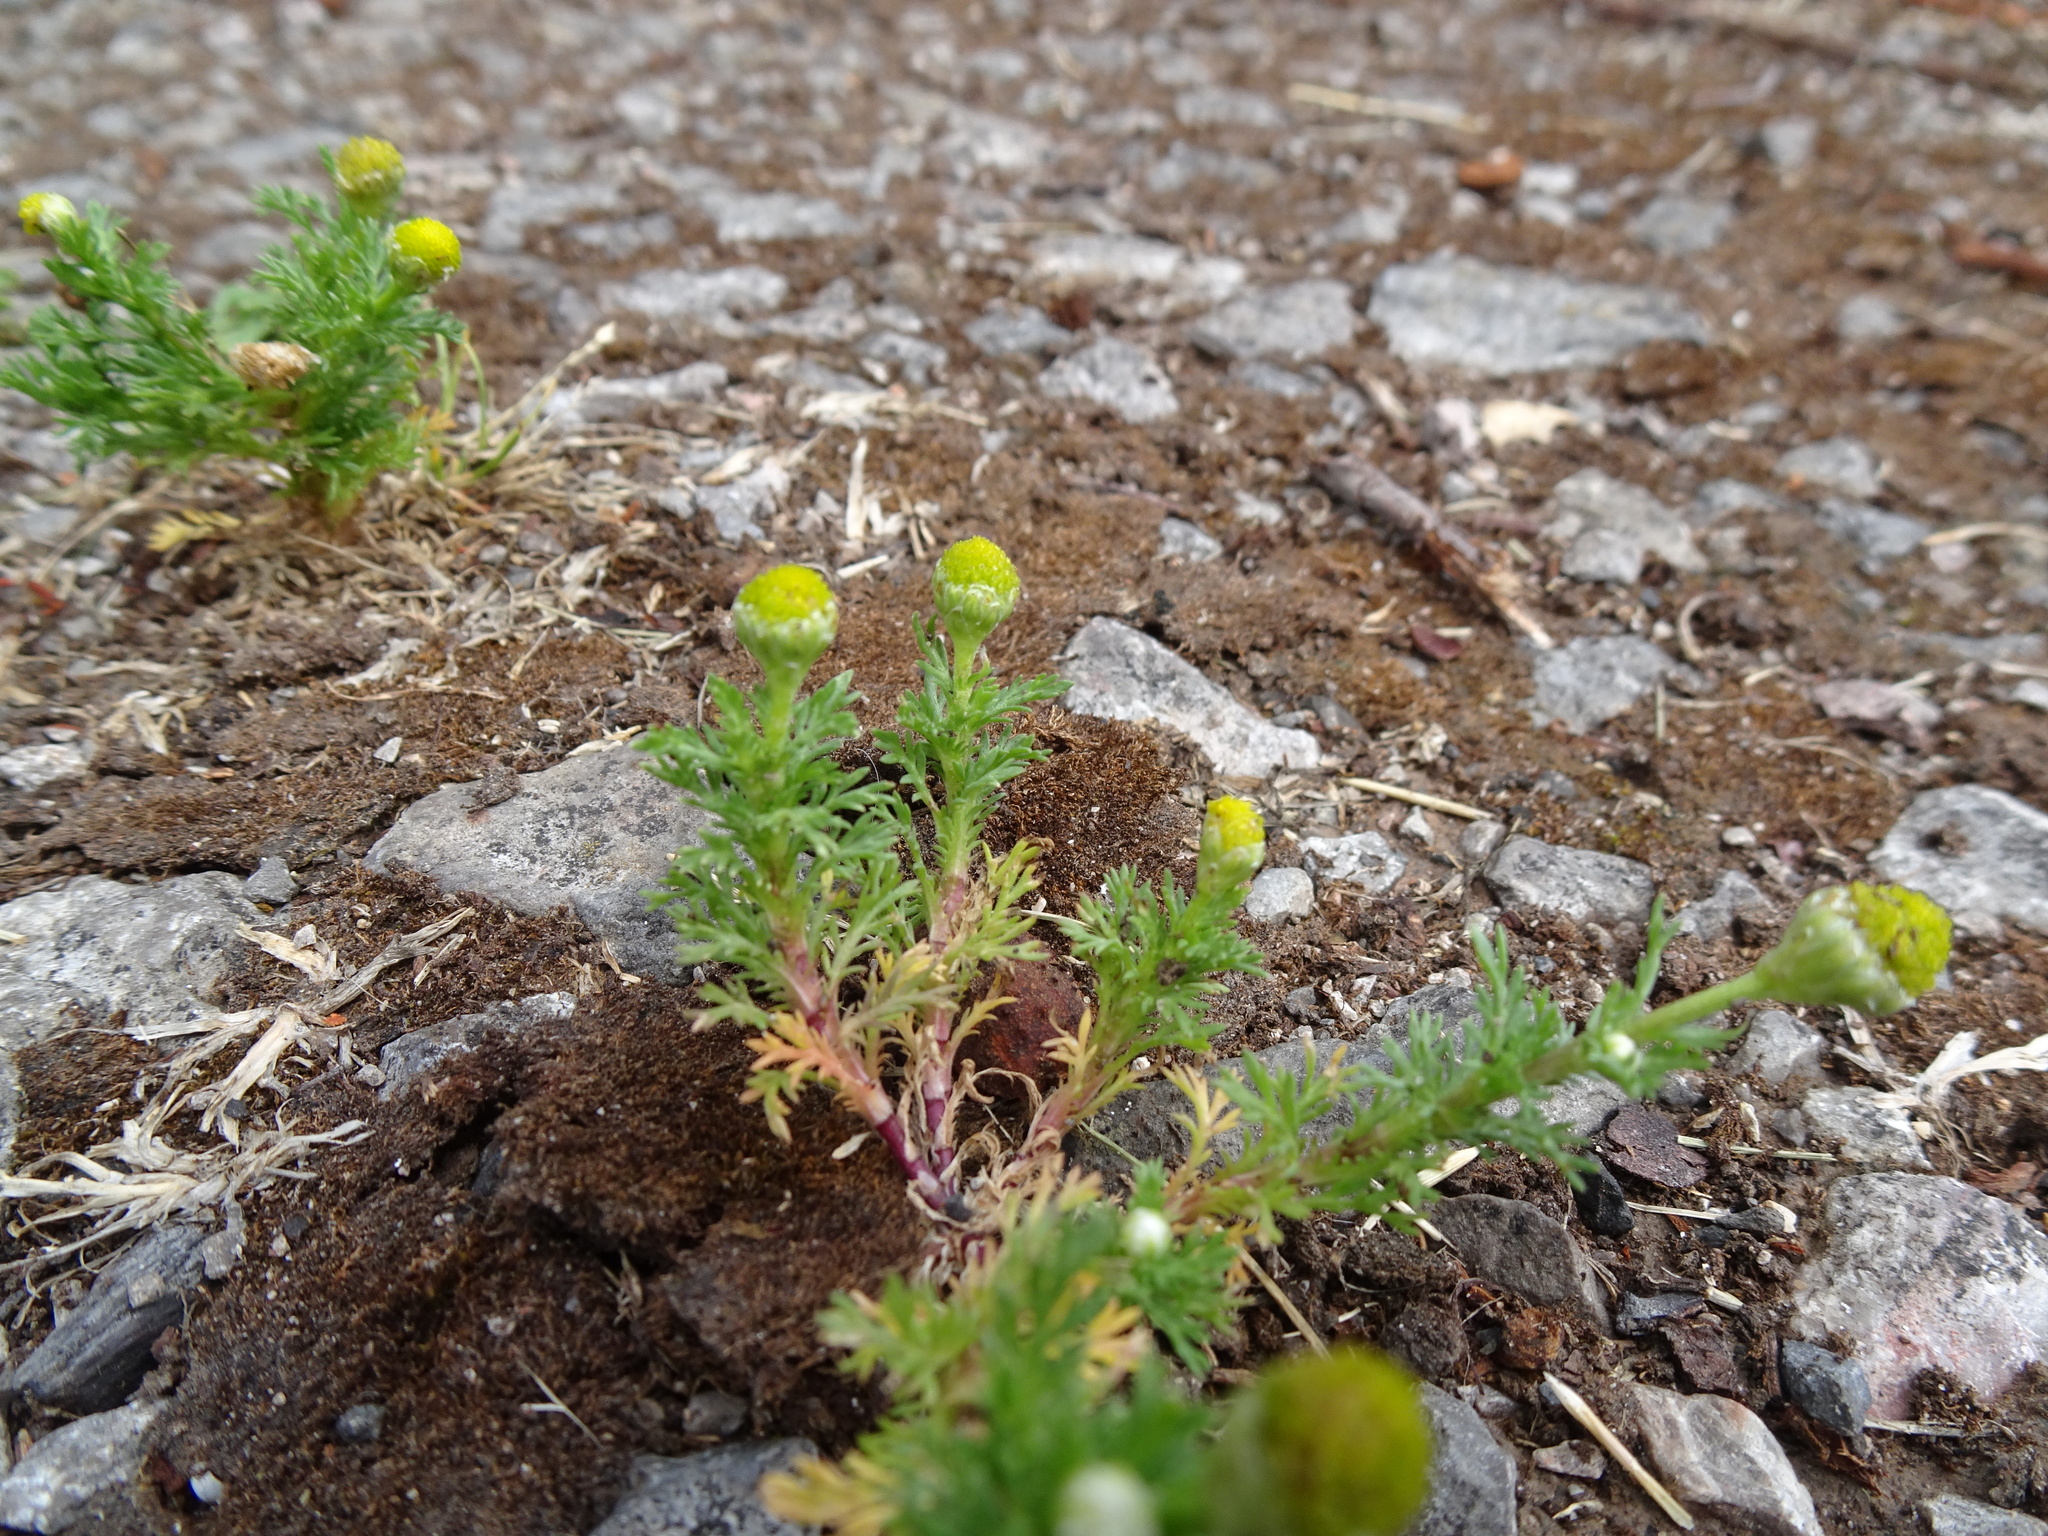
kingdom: Plantae
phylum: Tracheophyta
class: Magnoliopsida
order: Asterales
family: Asteraceae
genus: Matricaria
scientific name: Matricaria discoidea
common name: Disc mayweed
